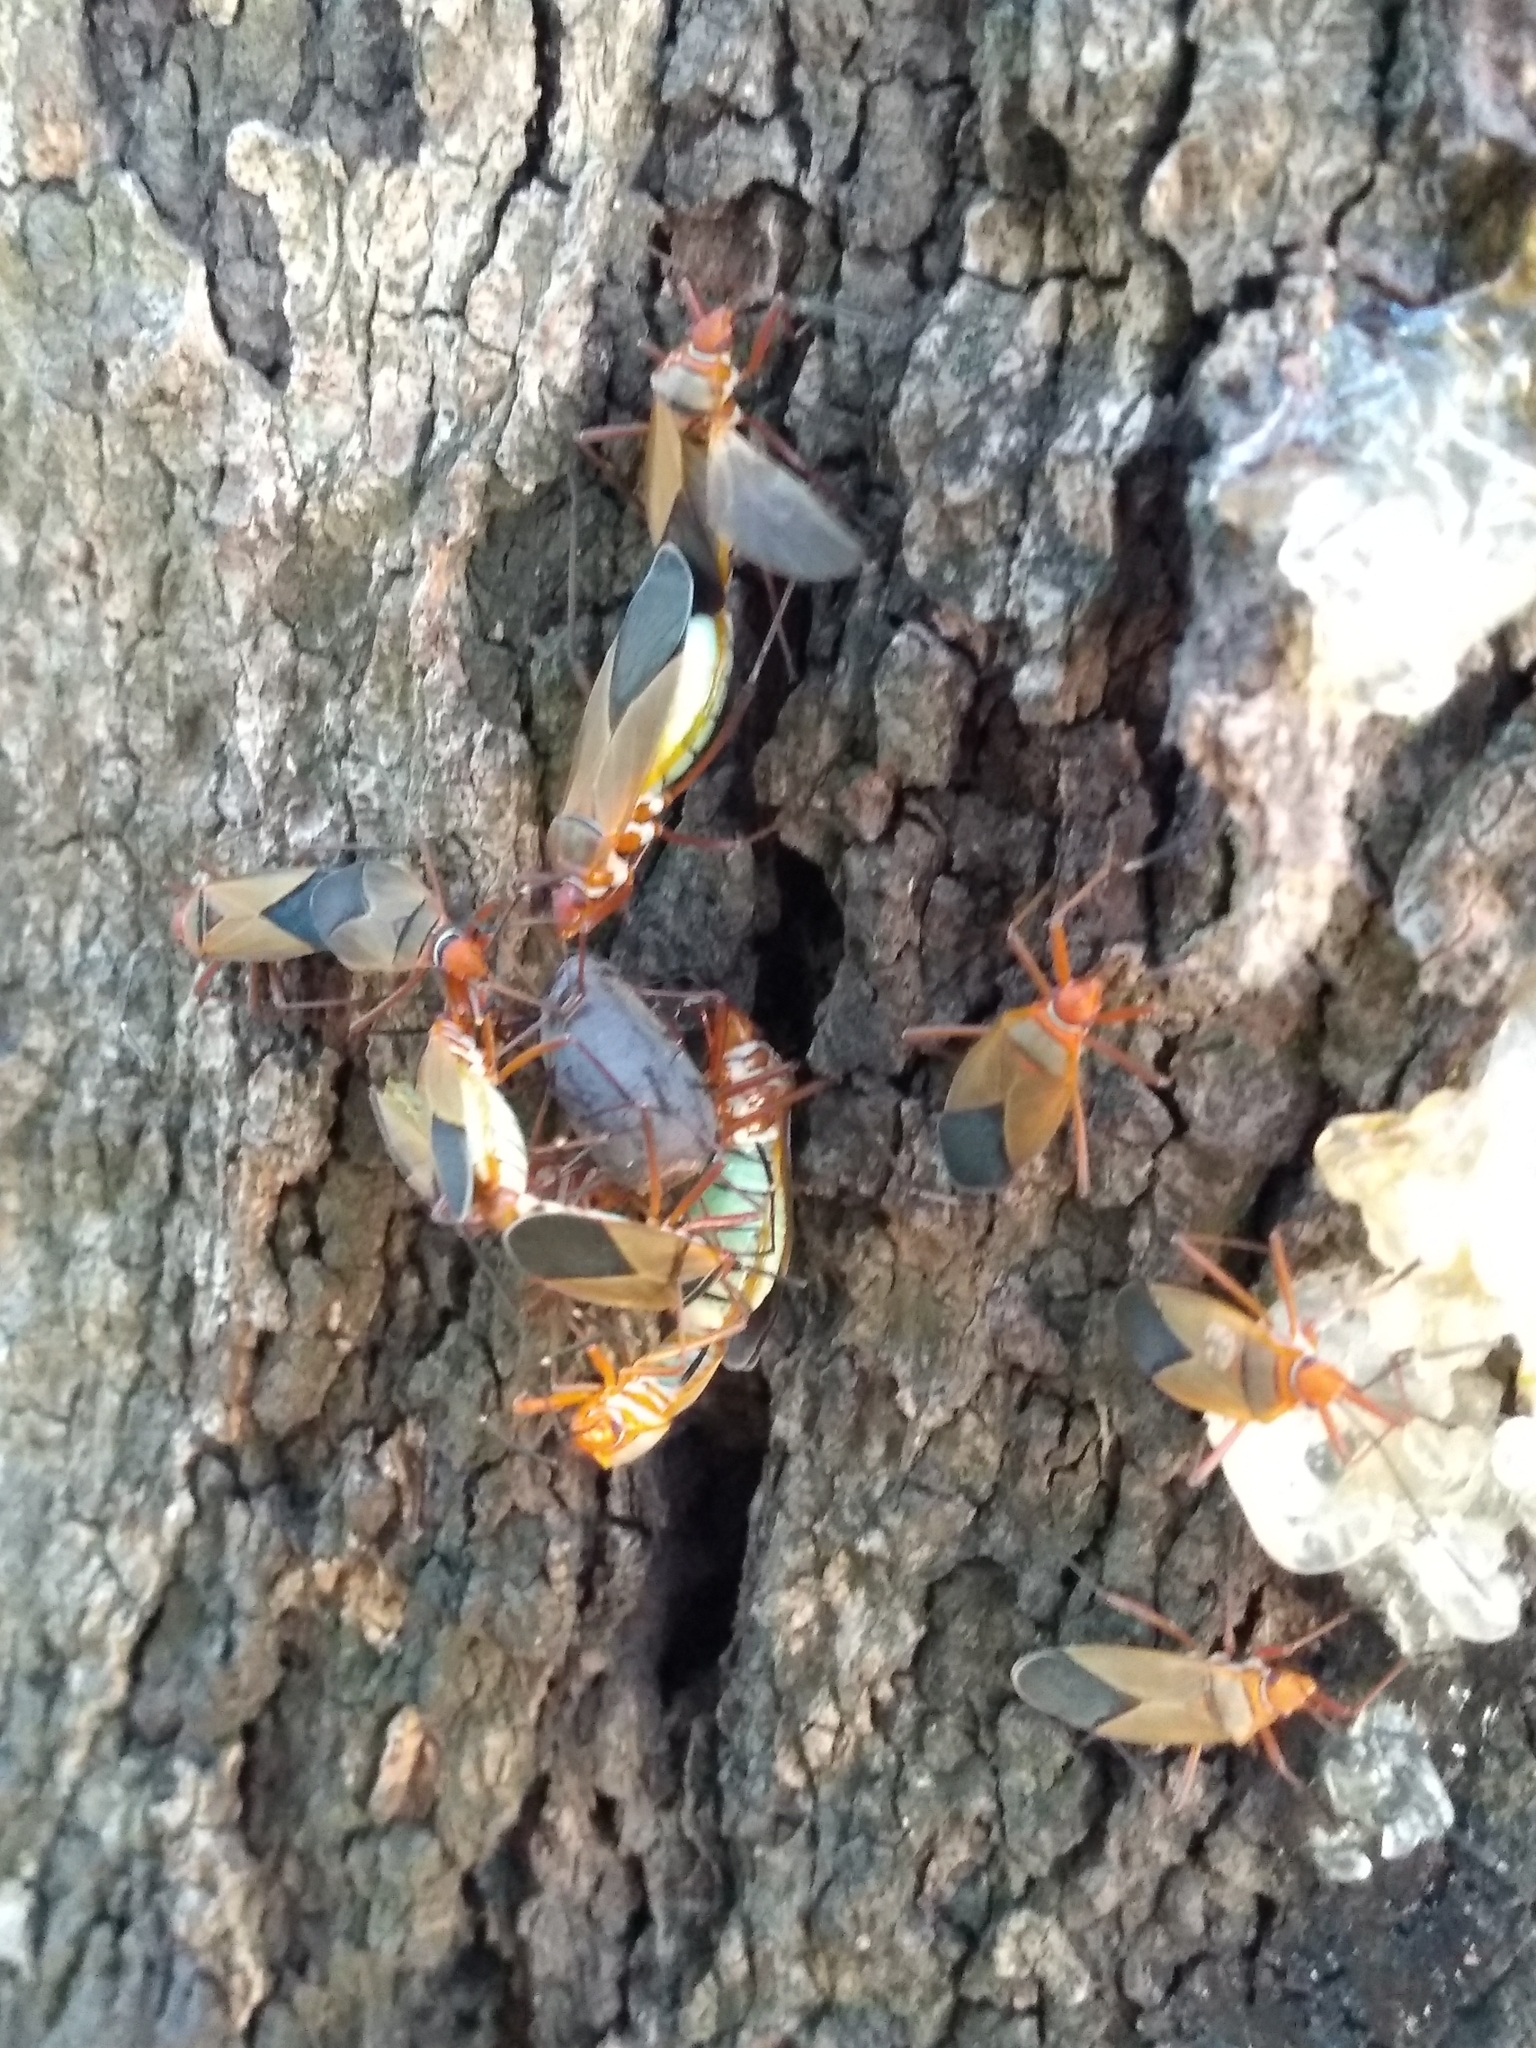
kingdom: Animalia
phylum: Arthropoda
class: Insecta
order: Hemiptera
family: Pyrrhocoridae
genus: Dysdercus
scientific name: Dysdercus
